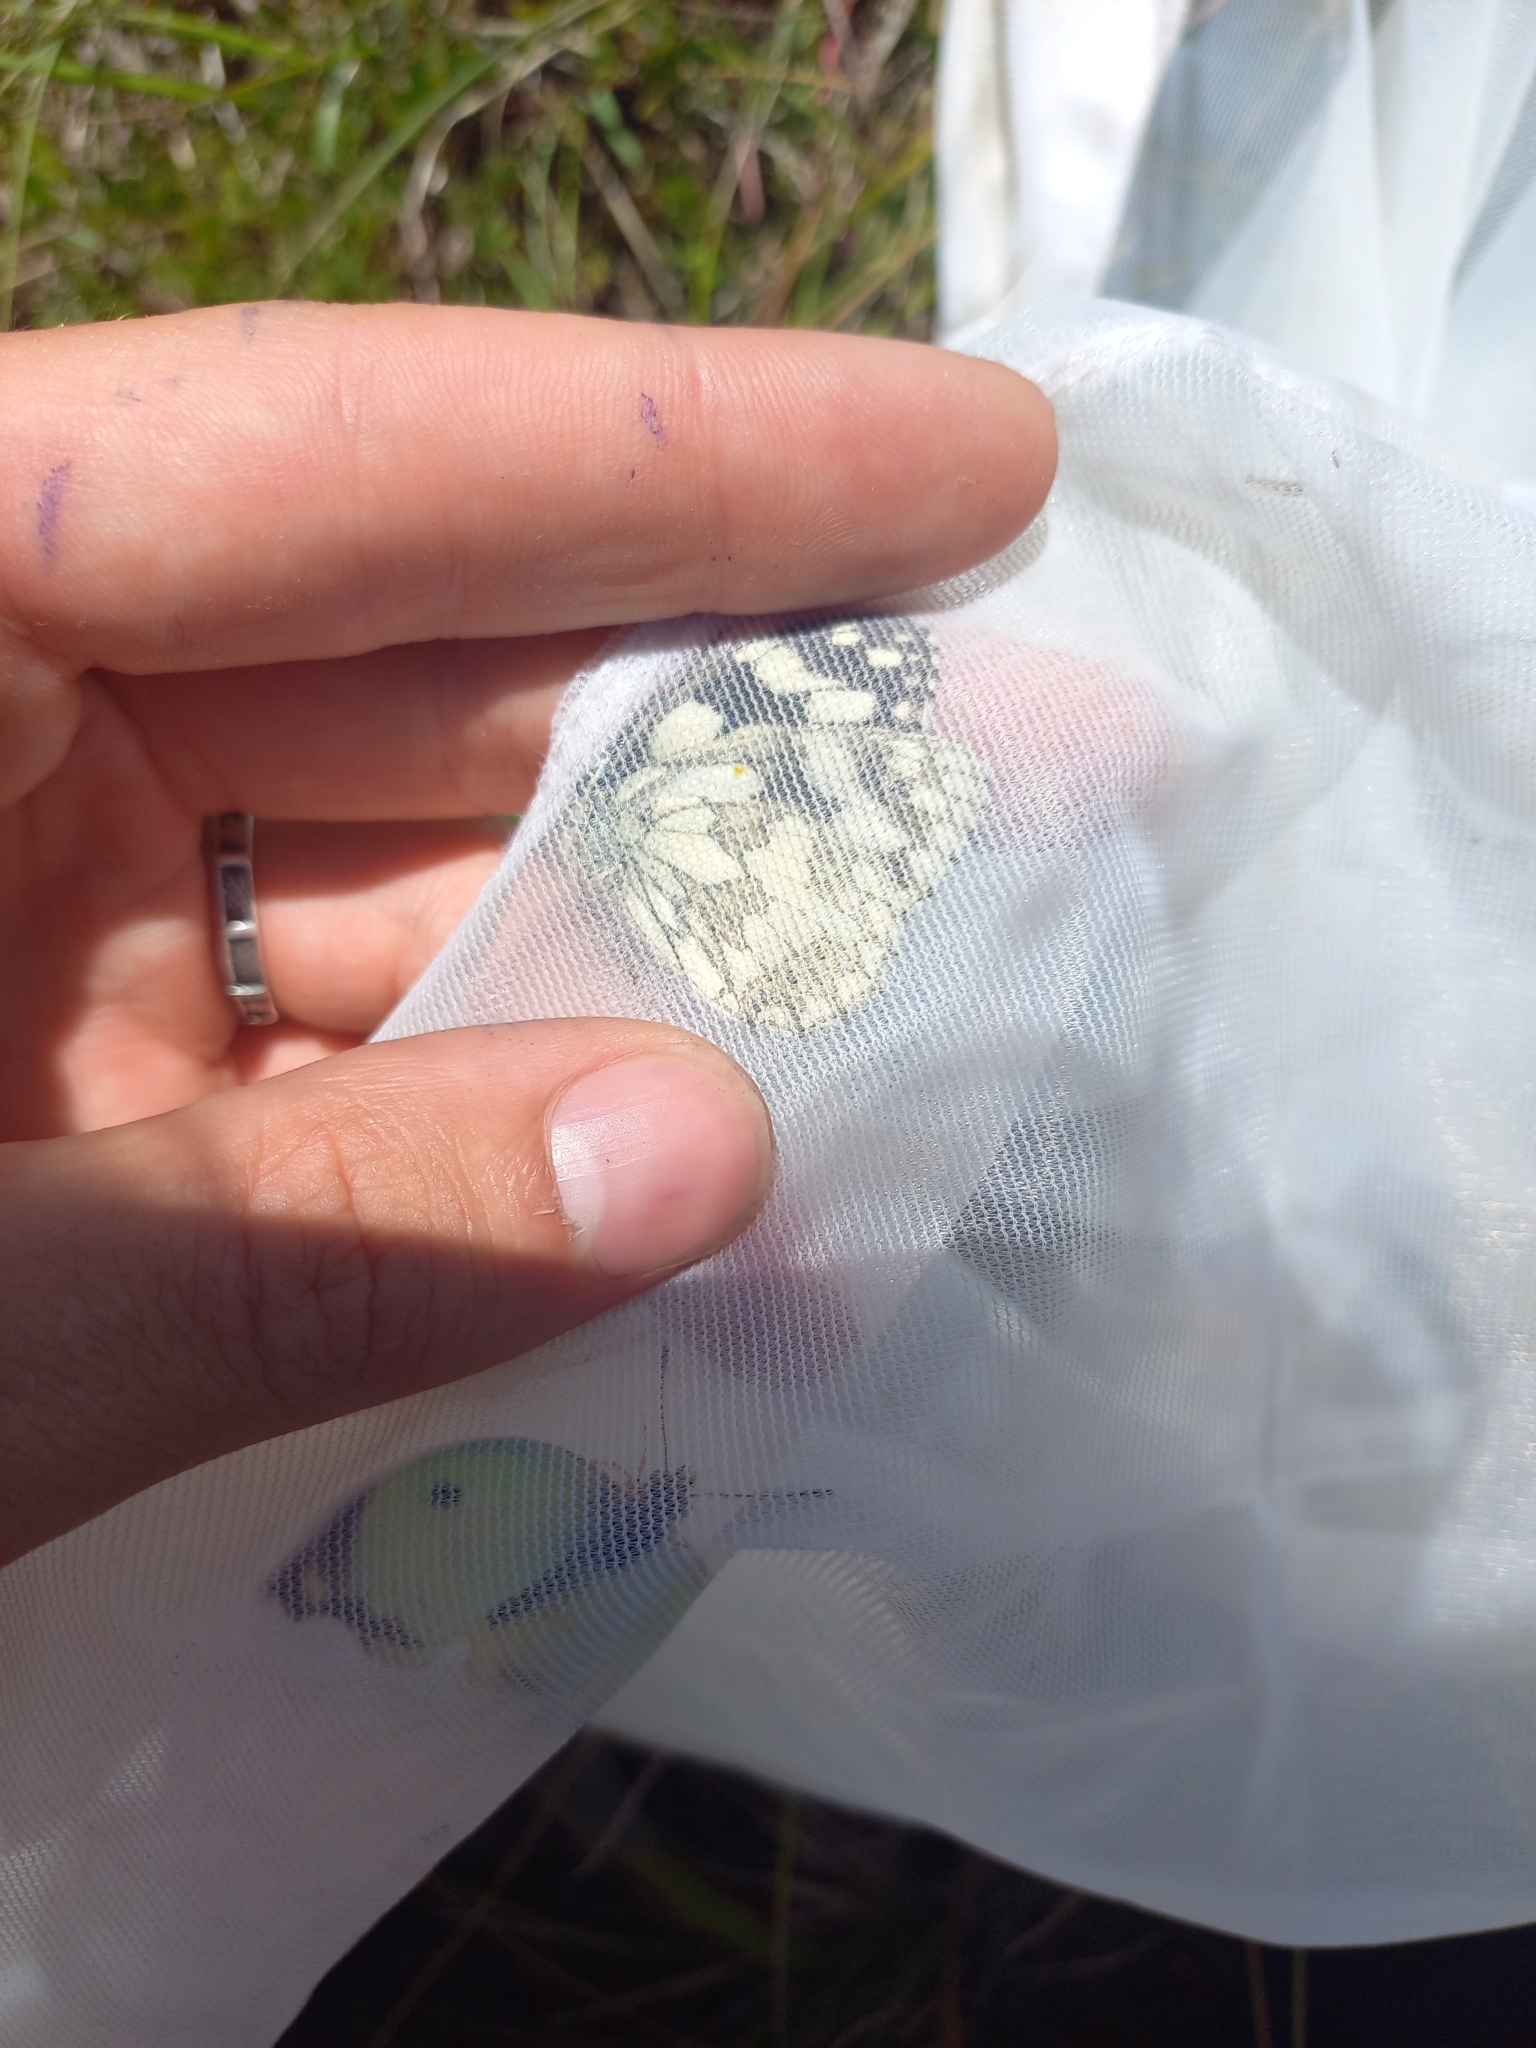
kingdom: Animalia
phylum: Arthropoda
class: Insecta
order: Lepidoptera
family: Nymphalidae
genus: Melanargia
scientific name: Melanargia galathea
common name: Marbled white
